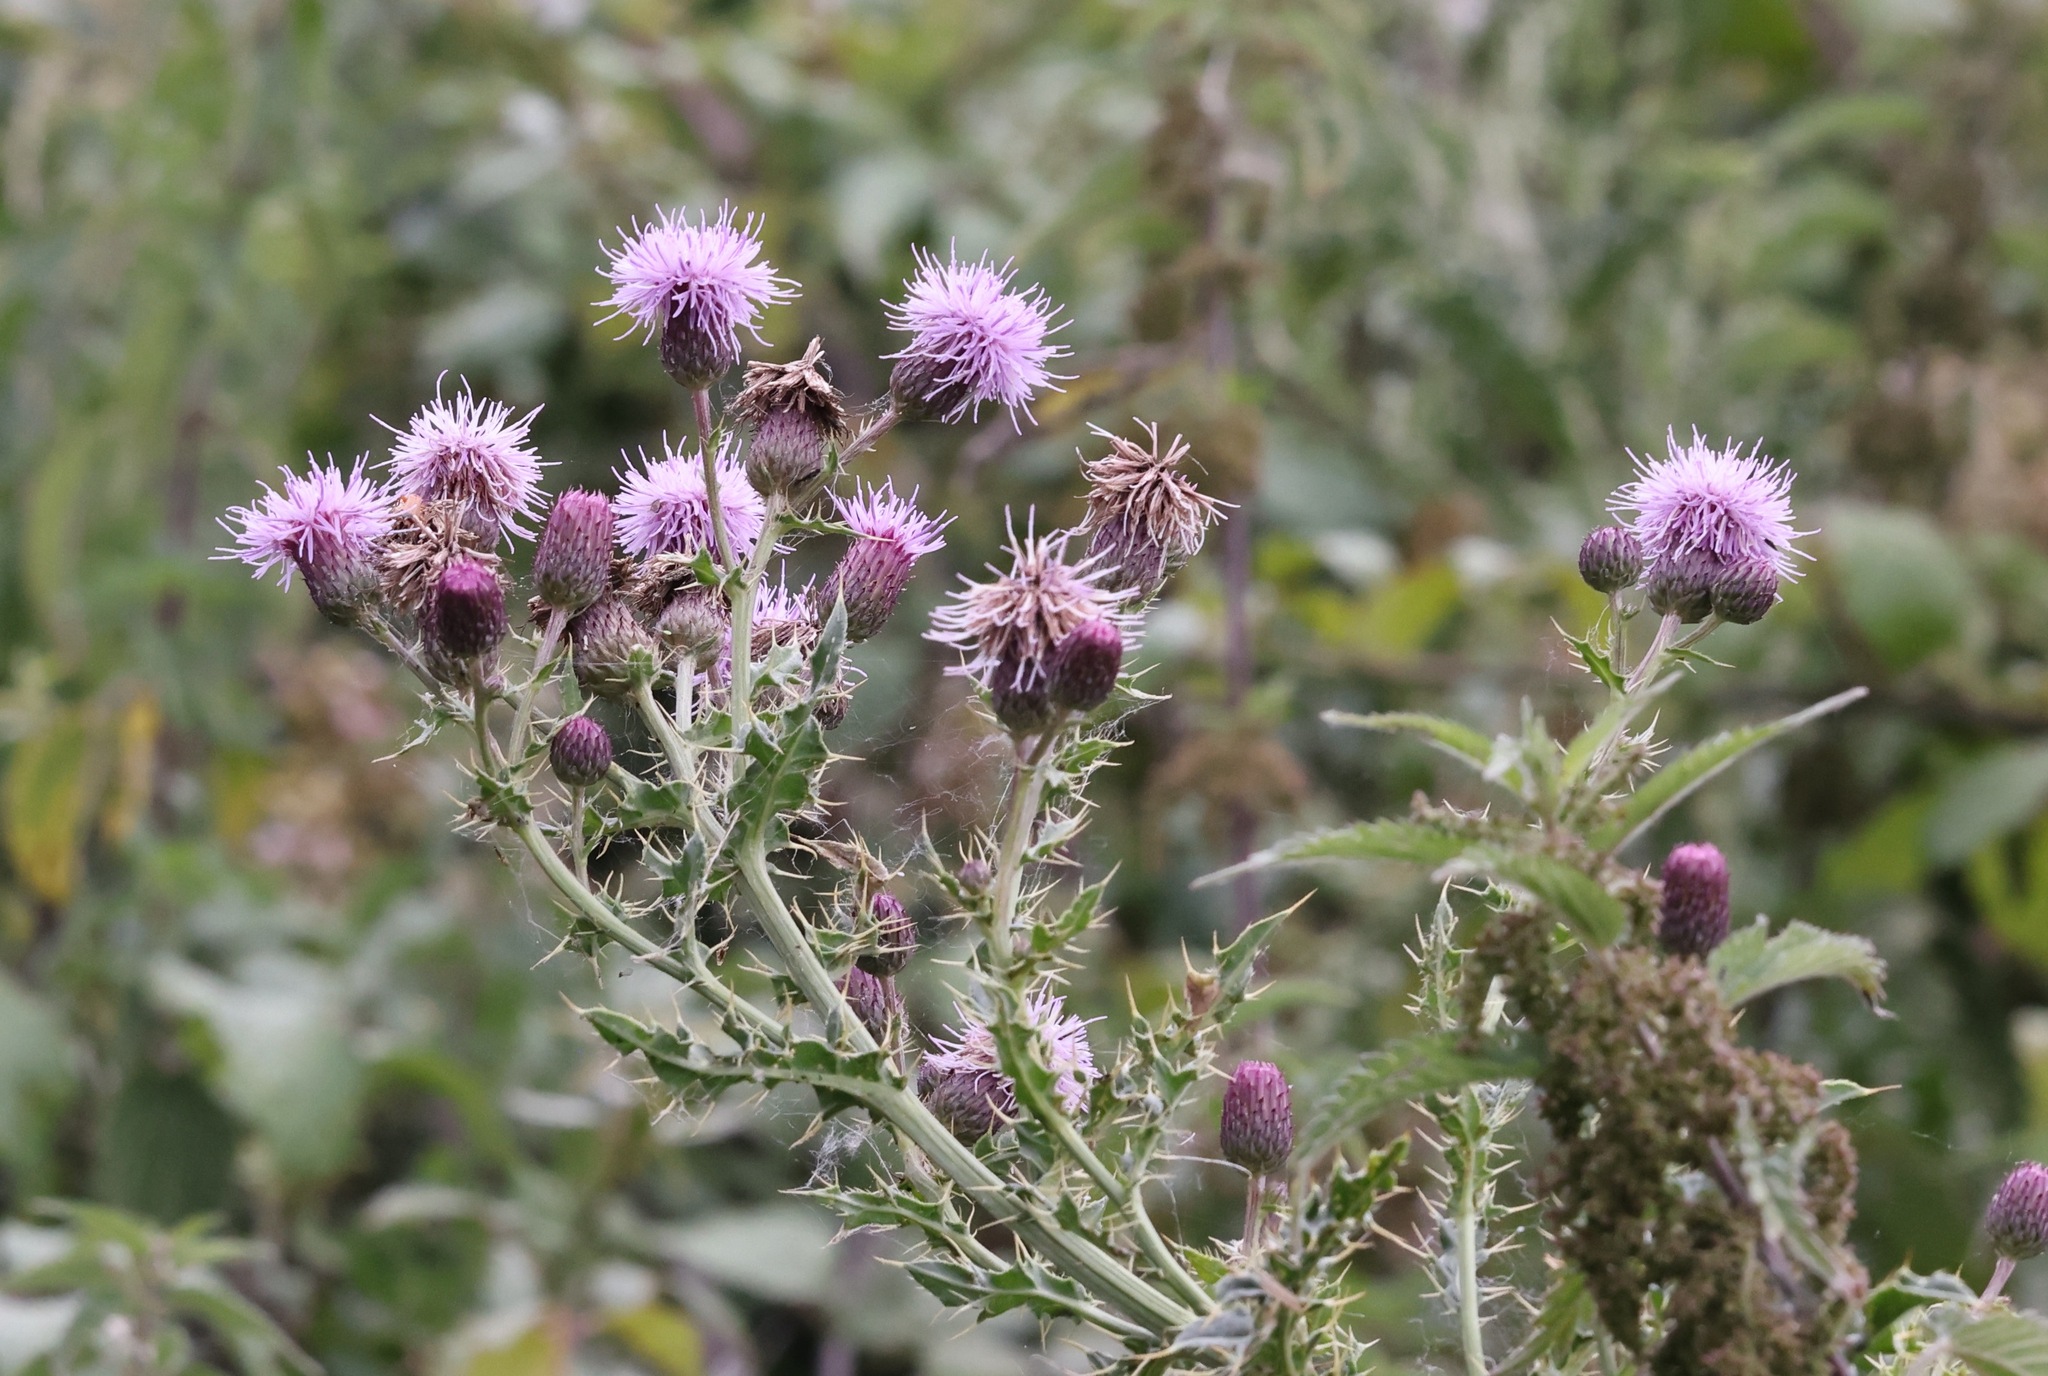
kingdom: Plantae
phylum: Tracheophyta
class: Magnoliopsida
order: Asterales
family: Asteraceae
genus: Cirsium
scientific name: Cirsium arvense
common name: Creeping thistle
